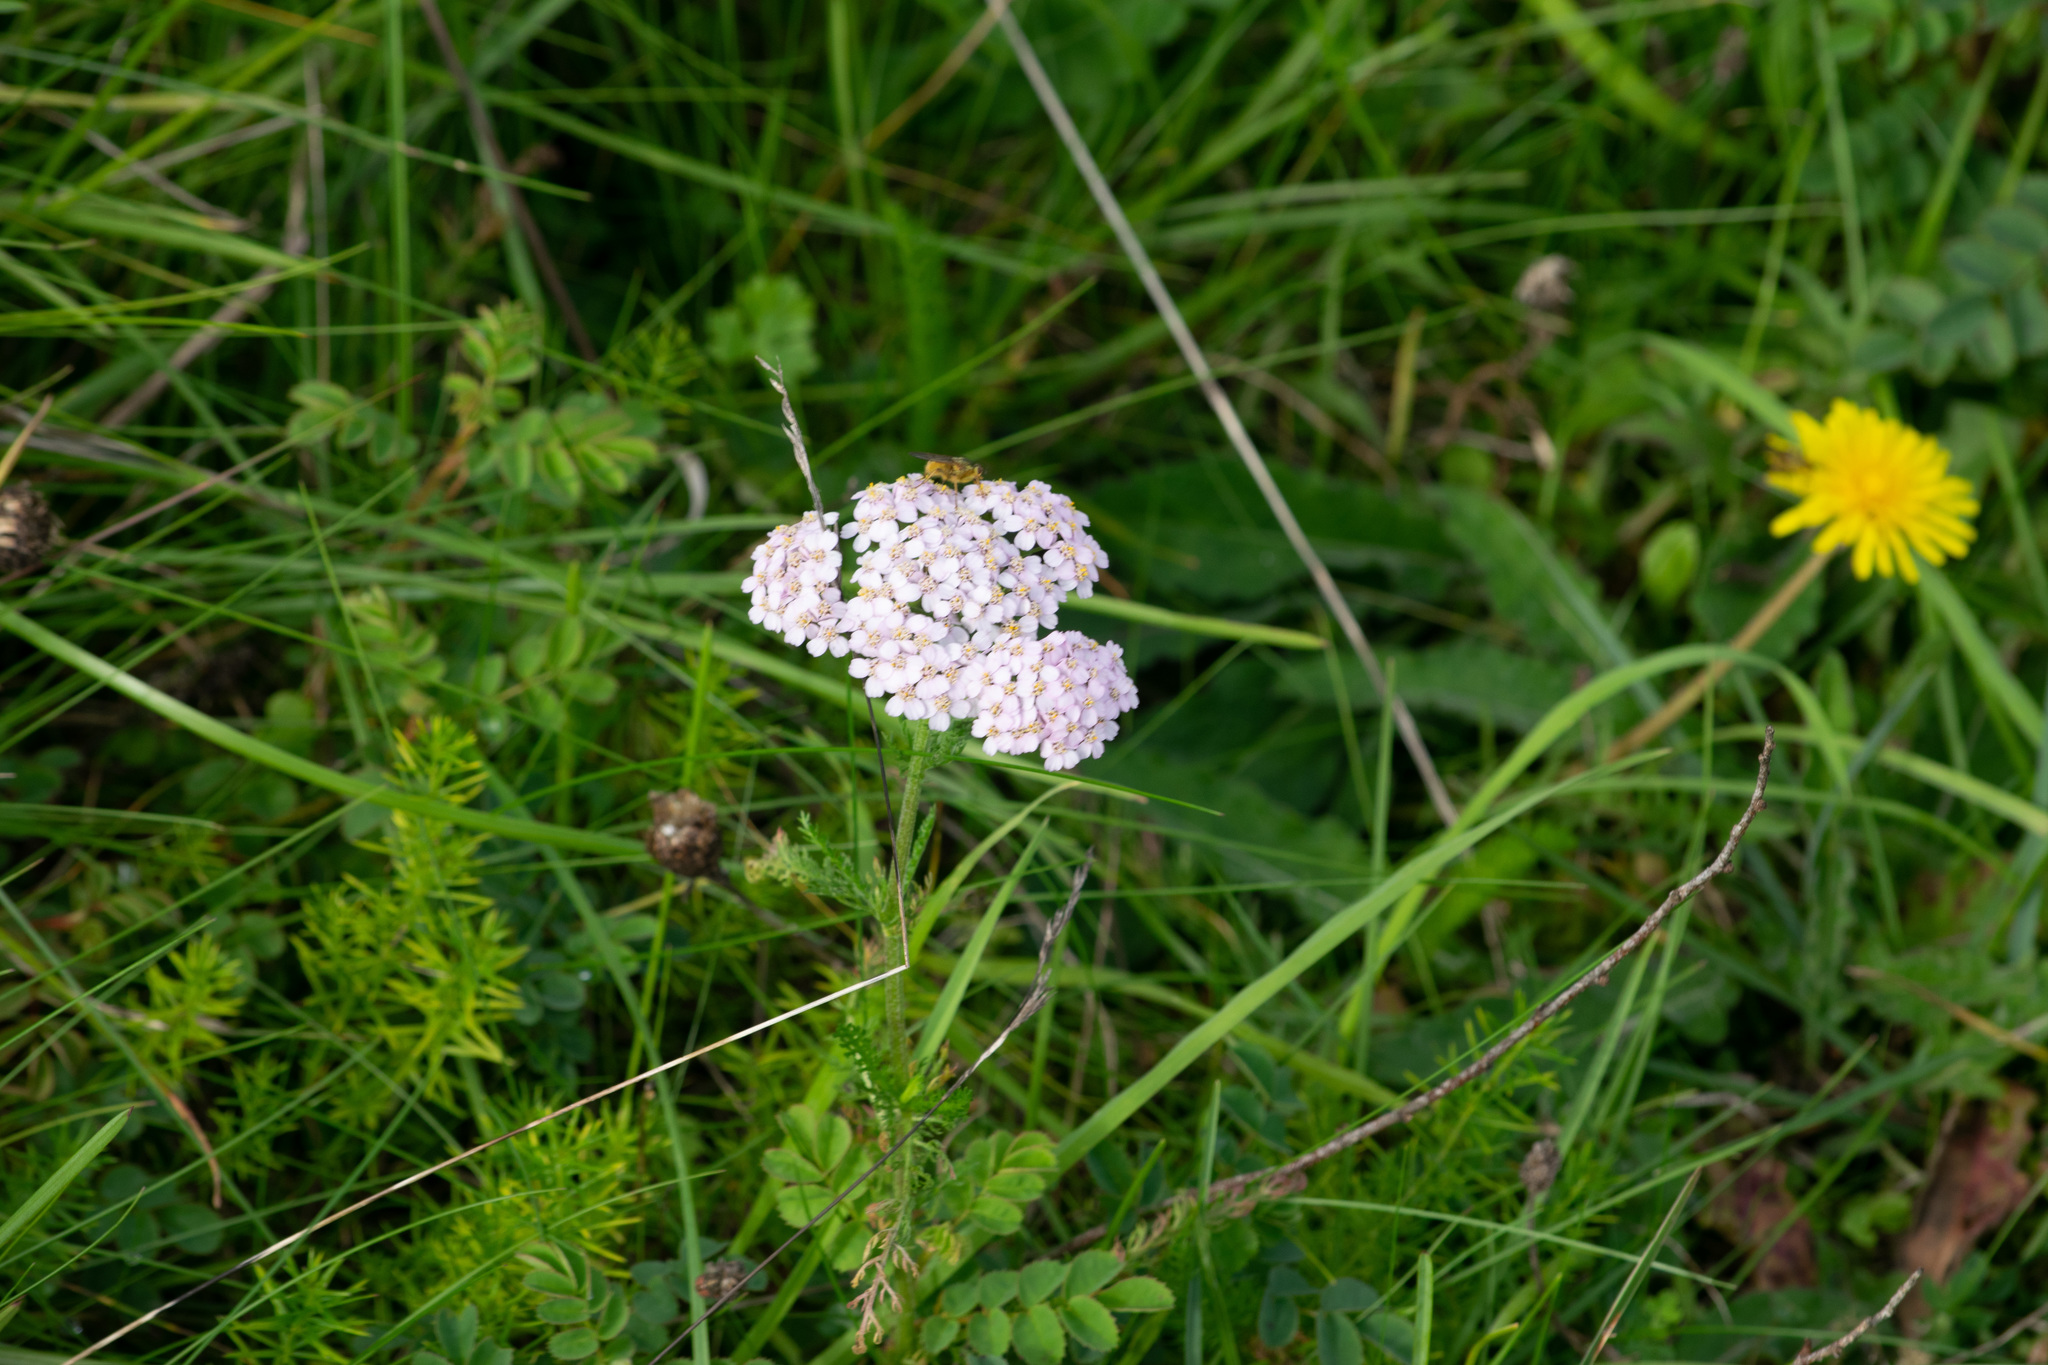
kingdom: Plantae
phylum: Tracheophyta
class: Magnoliopsida
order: Asterales
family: Asteraceae
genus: Achillea
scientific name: Achillea millefolium
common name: Yarrow
